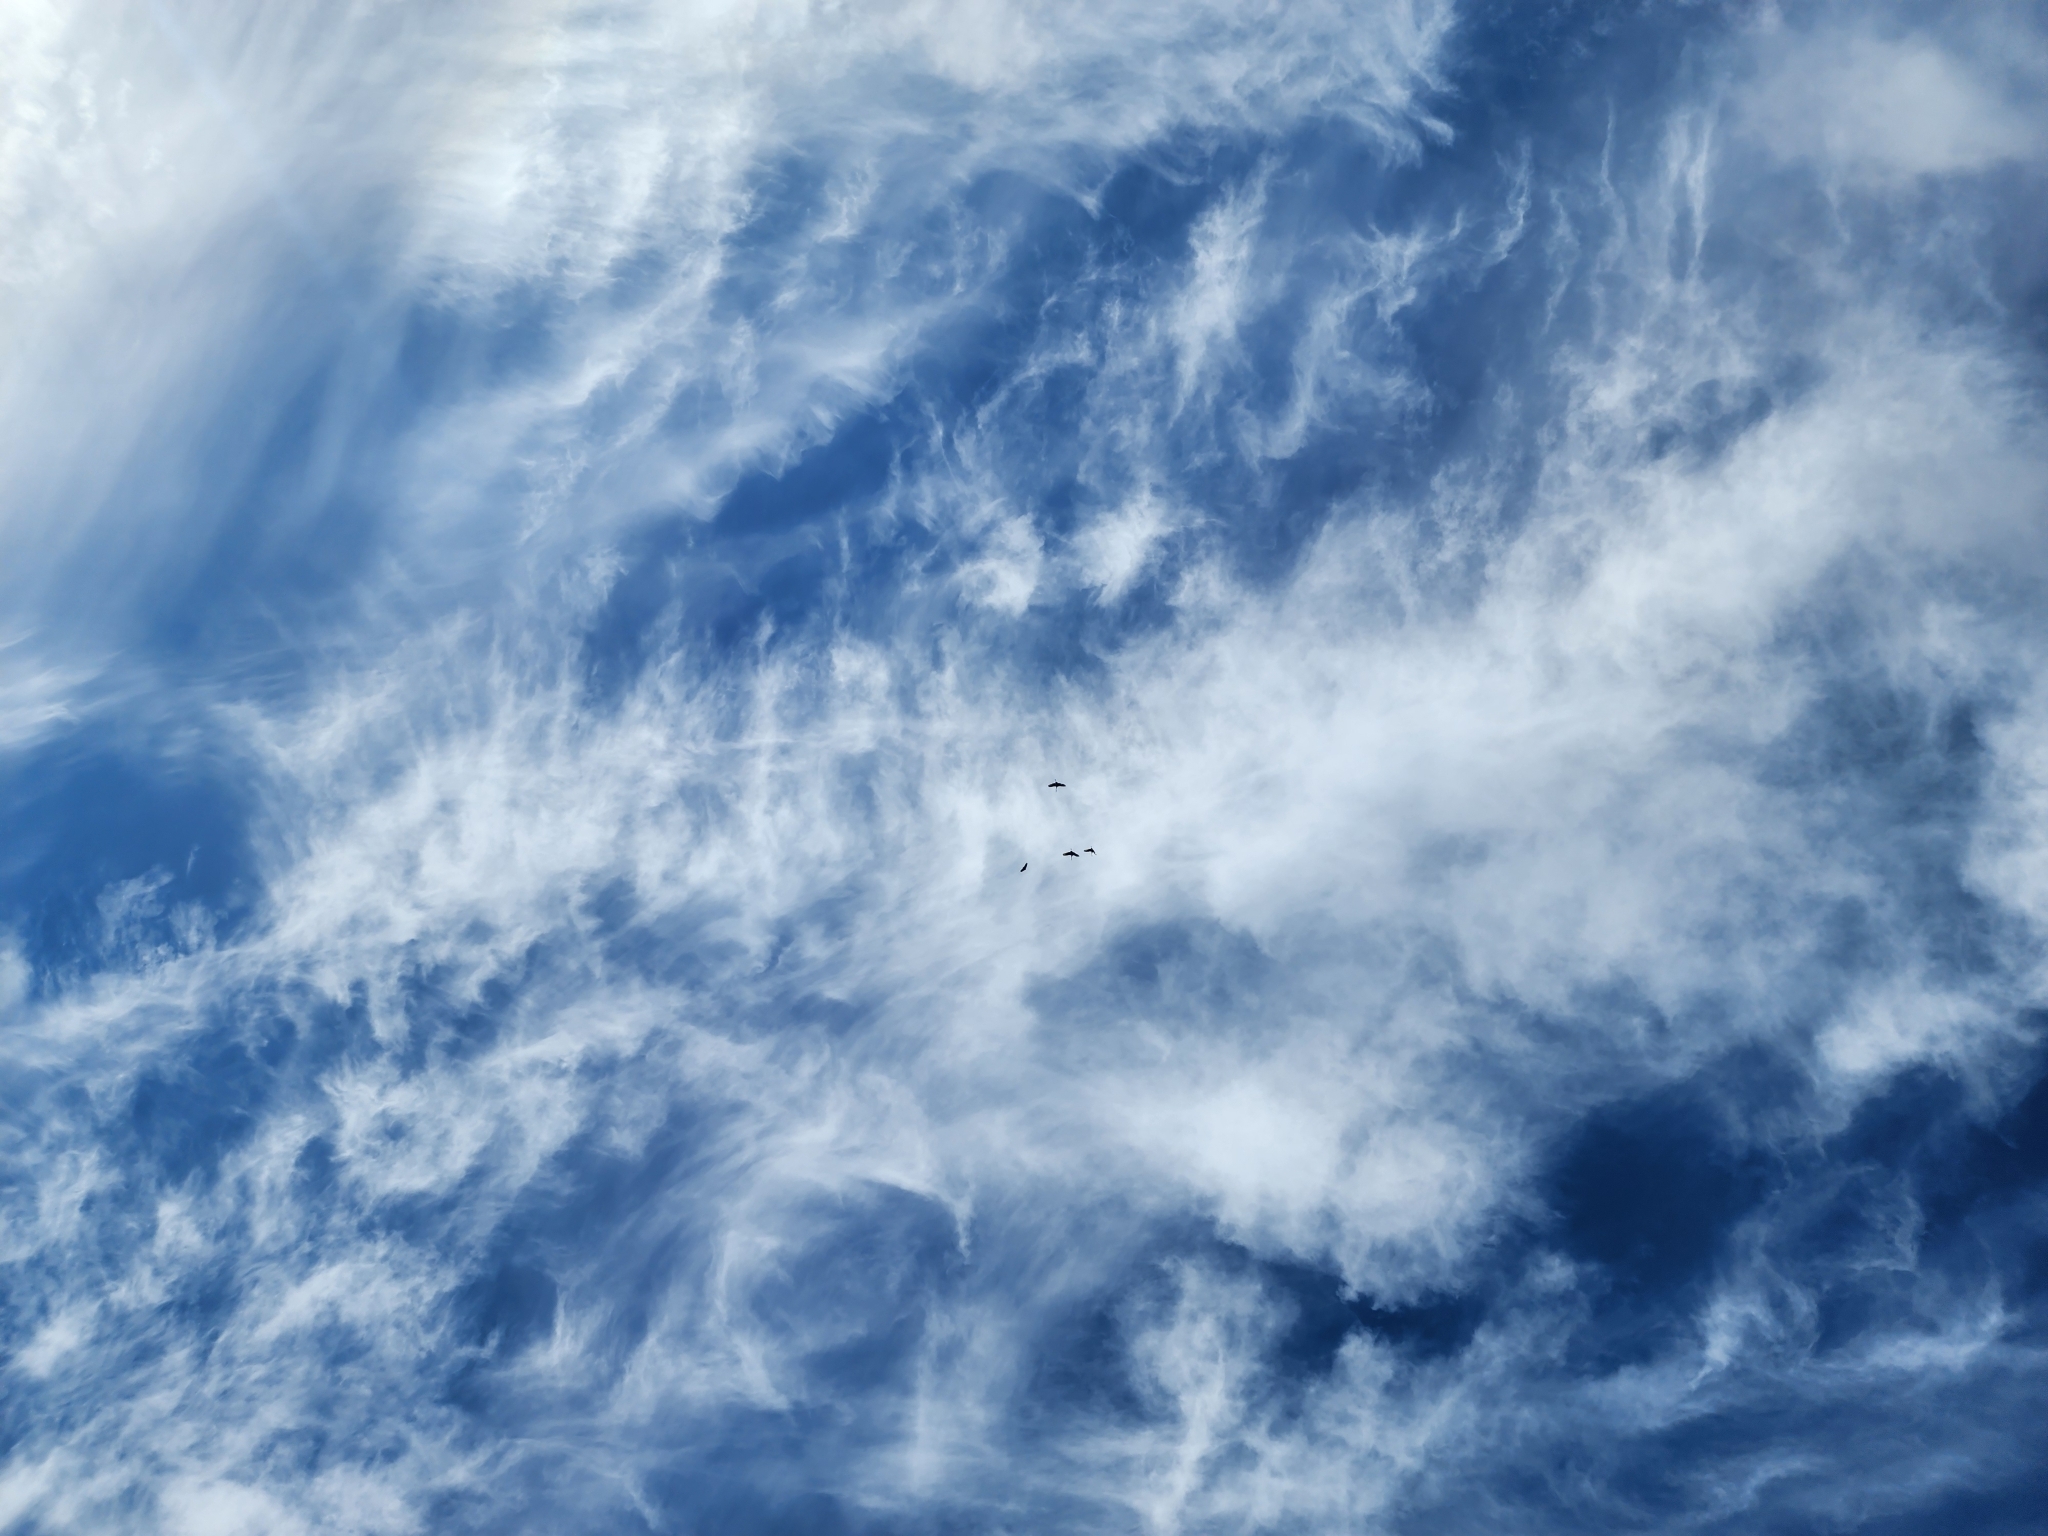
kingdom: Animalia
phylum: Chordata
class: Aves
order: Gruiformes
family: Gruidae
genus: Grus
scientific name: Grus canadensis
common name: Sandhill crane
